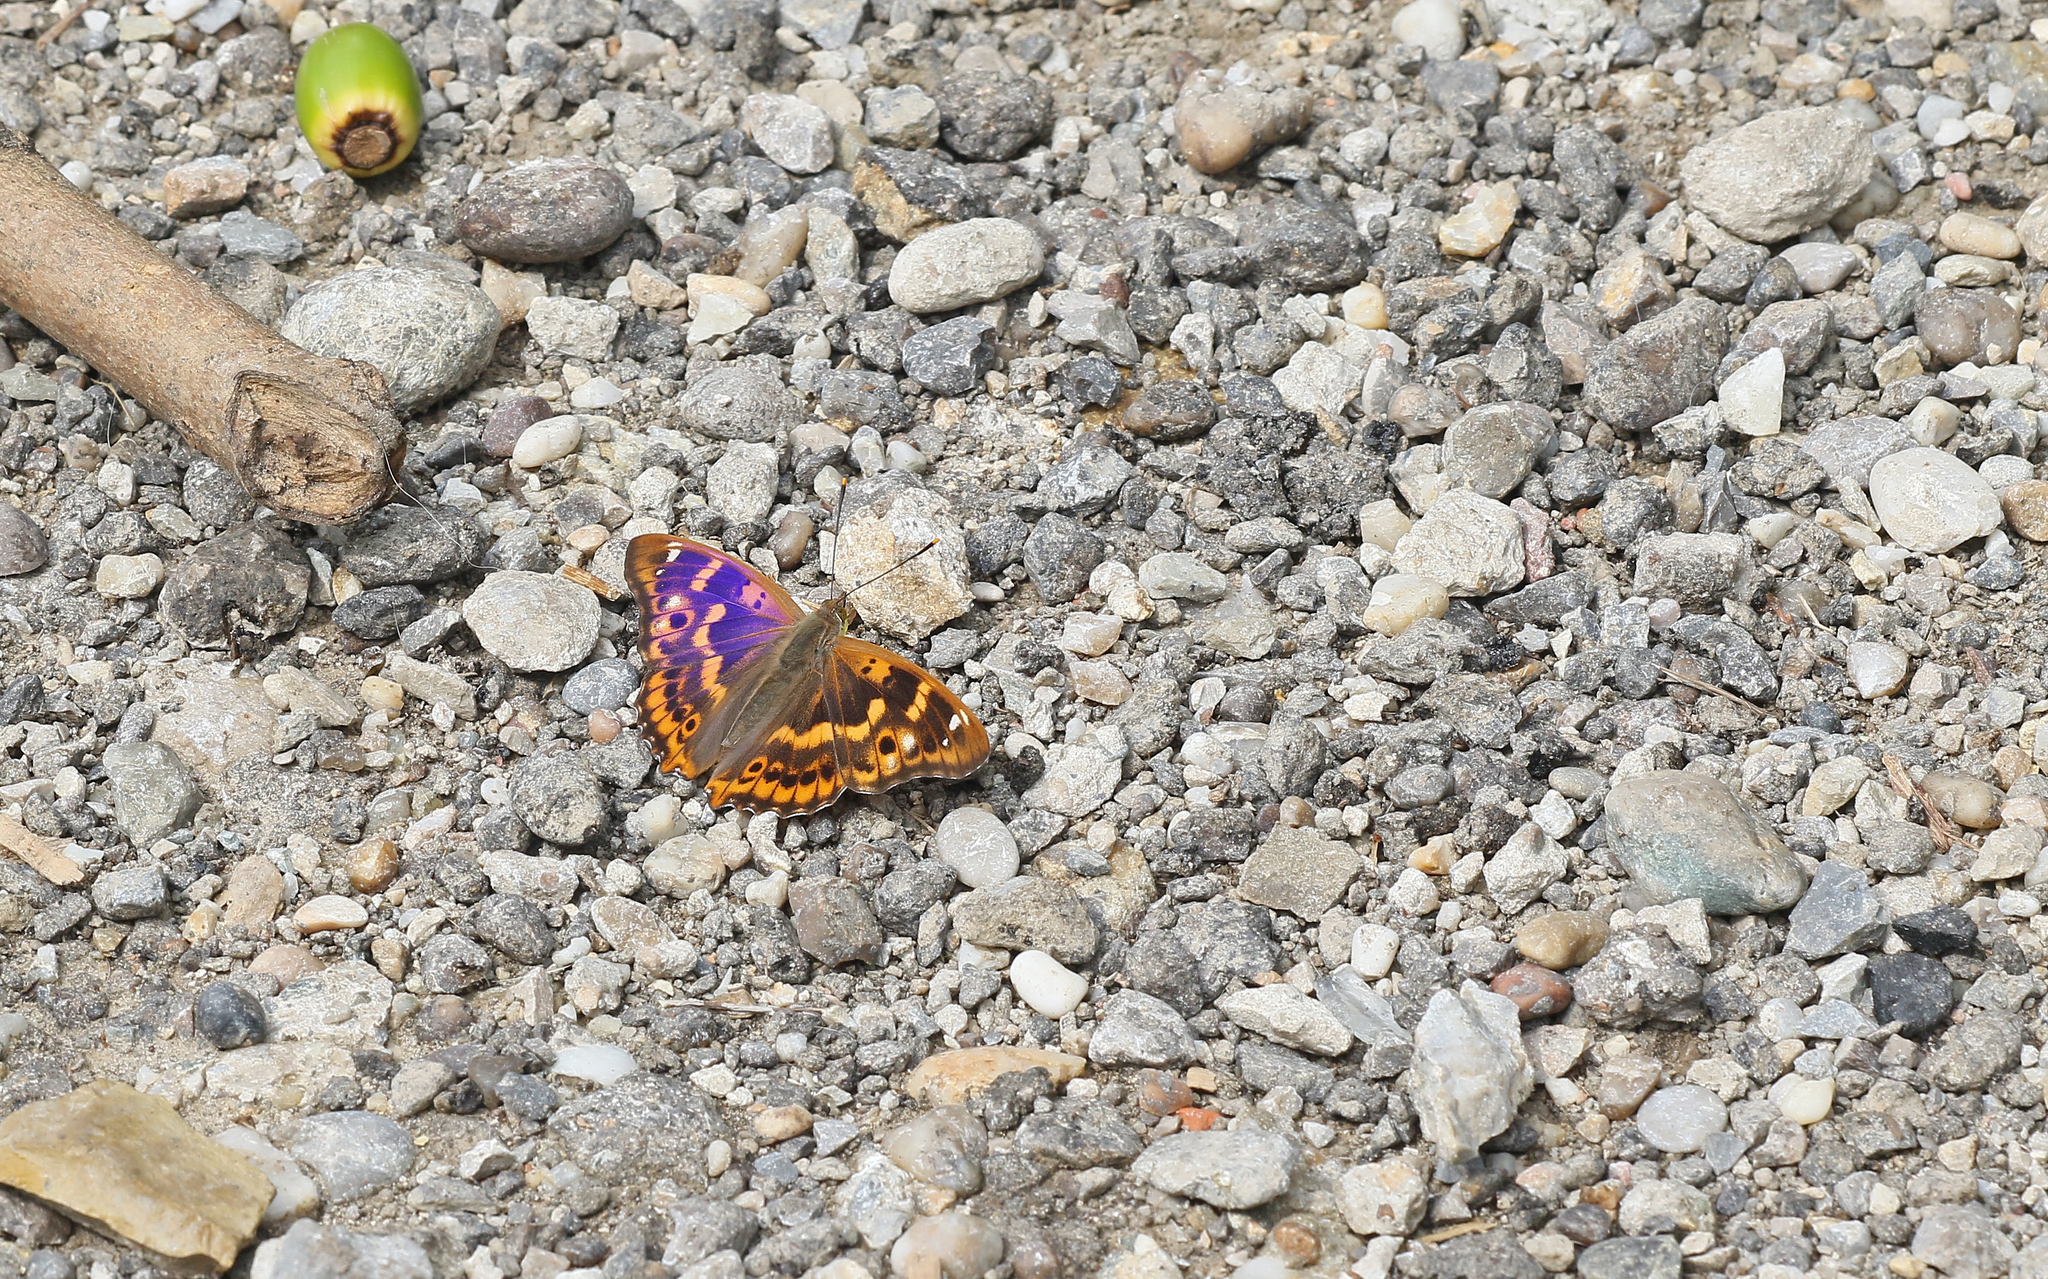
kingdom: Animalia
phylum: Arthropoda
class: Insecta
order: Lepidoptera
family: Nymphalidae
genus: Apatura
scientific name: Apatura ilia
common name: Lesser purple emperor
